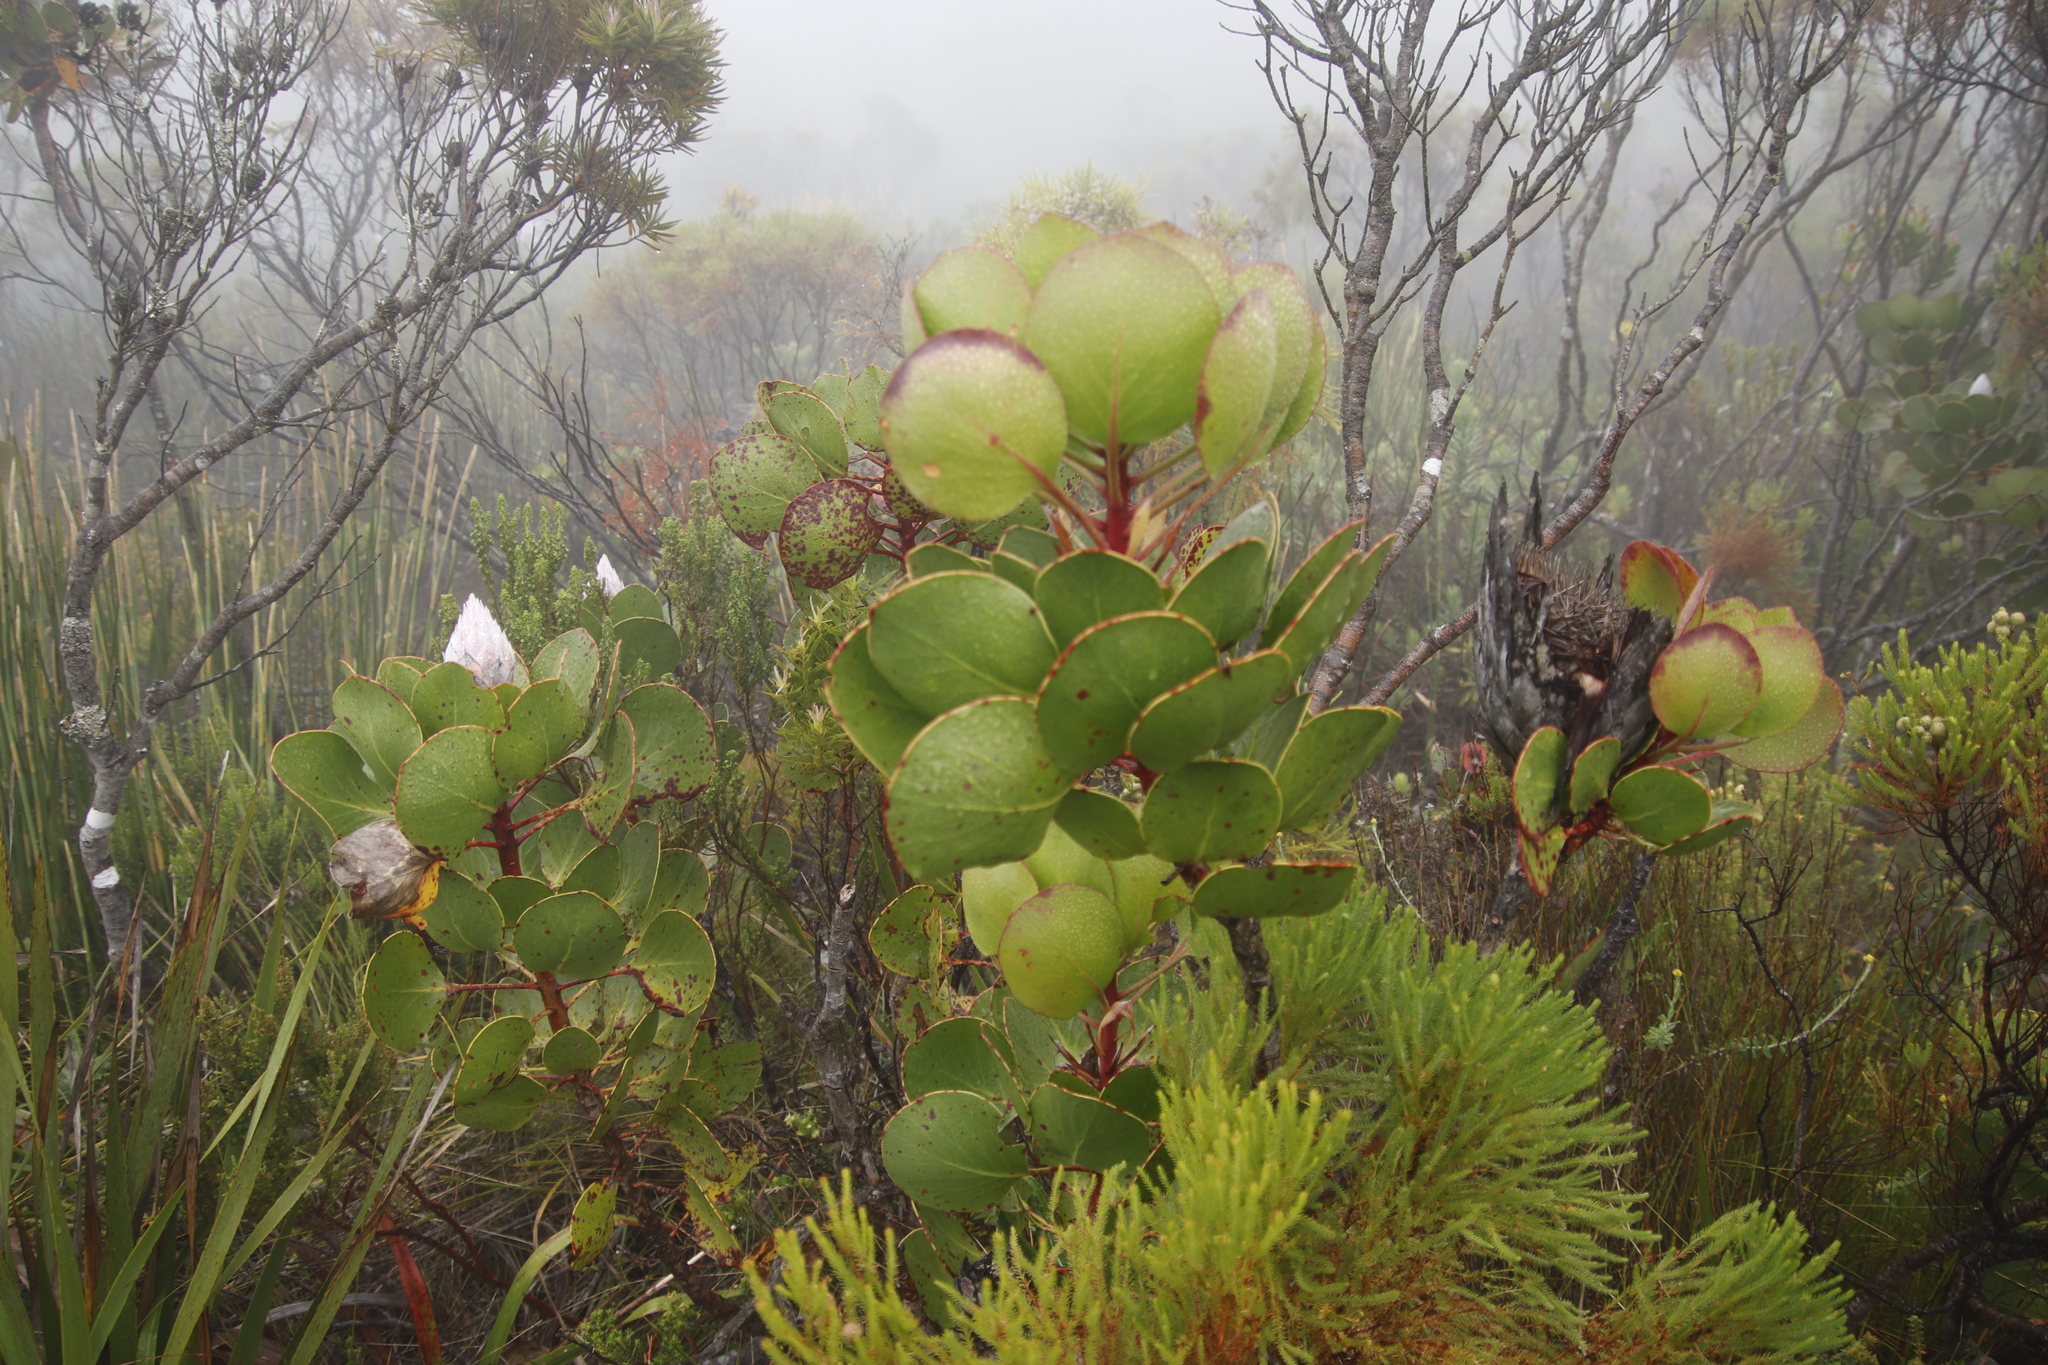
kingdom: Plantae
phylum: Tracheophyta
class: Magnoliopsida
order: Proteales
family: Proteaceae
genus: Protea
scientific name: Protea cynaroides
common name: King protea
